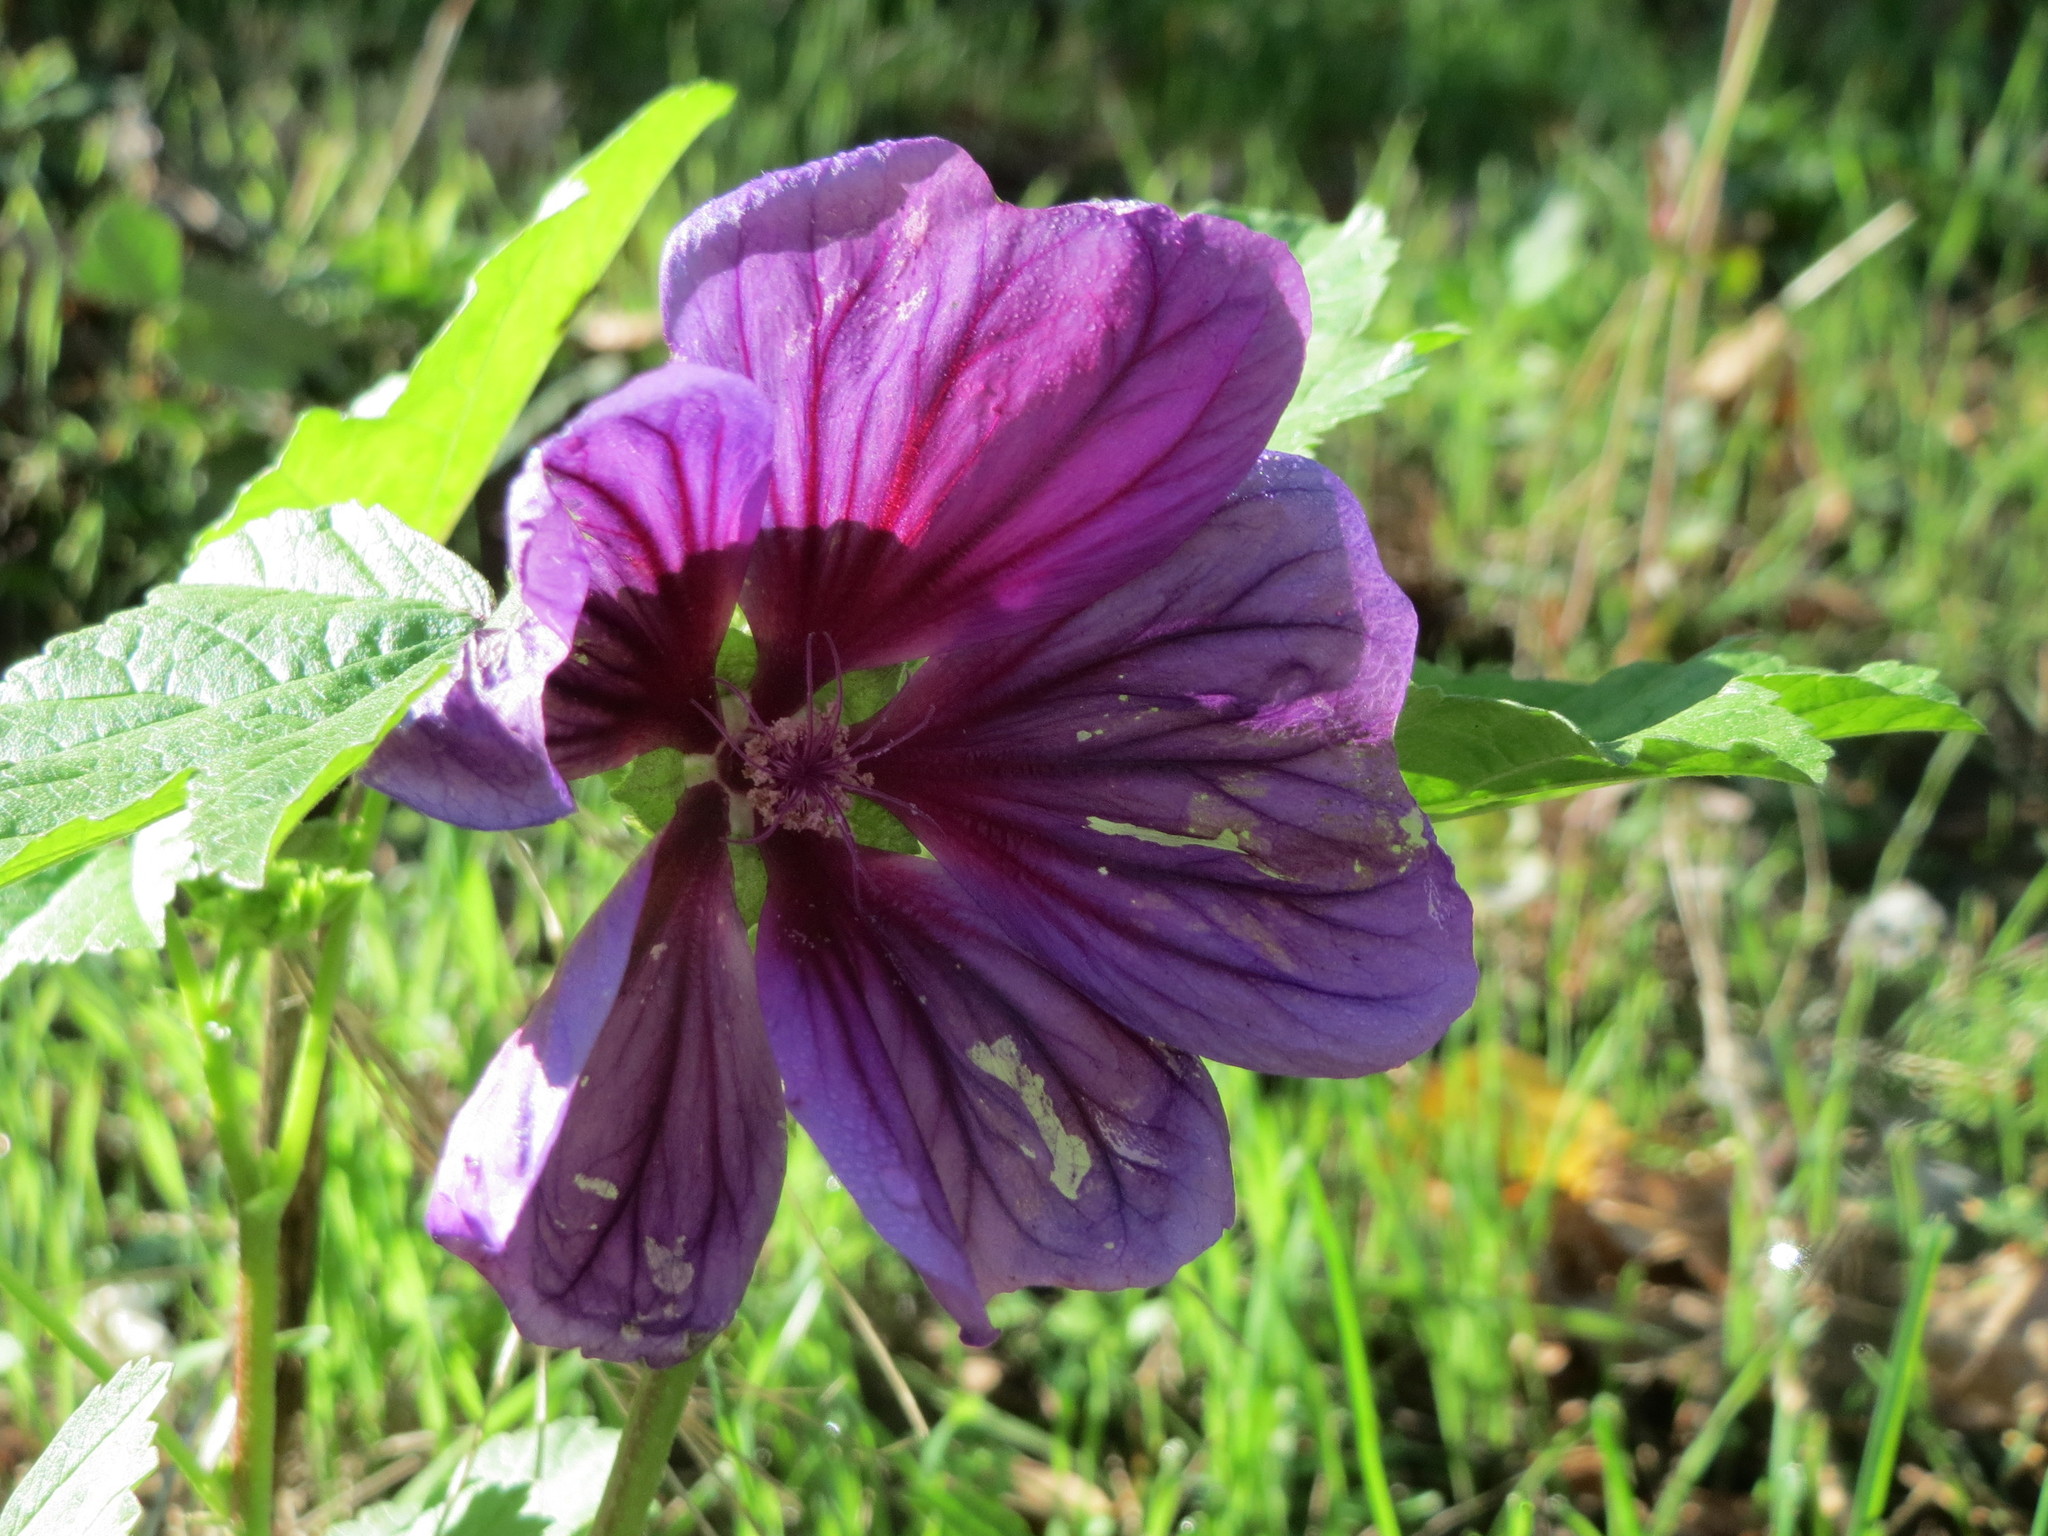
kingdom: Plantae
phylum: Tracheophyta
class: Magnoliopsida
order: Malvales
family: Malvaceae
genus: Malva
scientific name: Malva sylvestris
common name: Common mallow
